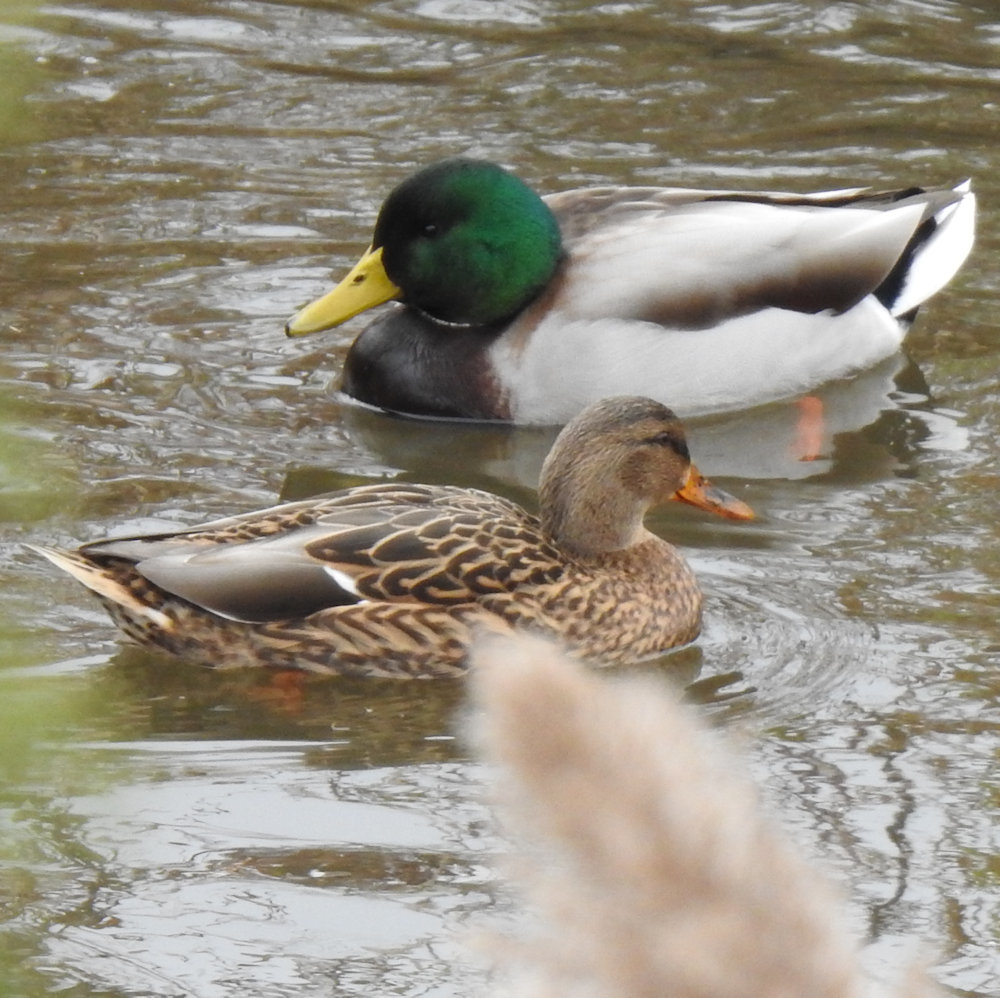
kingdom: Animalia
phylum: Chordata
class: Aves
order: Anseriformes
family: Anatidae
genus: Anas
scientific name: Anas platyrhynchos
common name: Mallard
